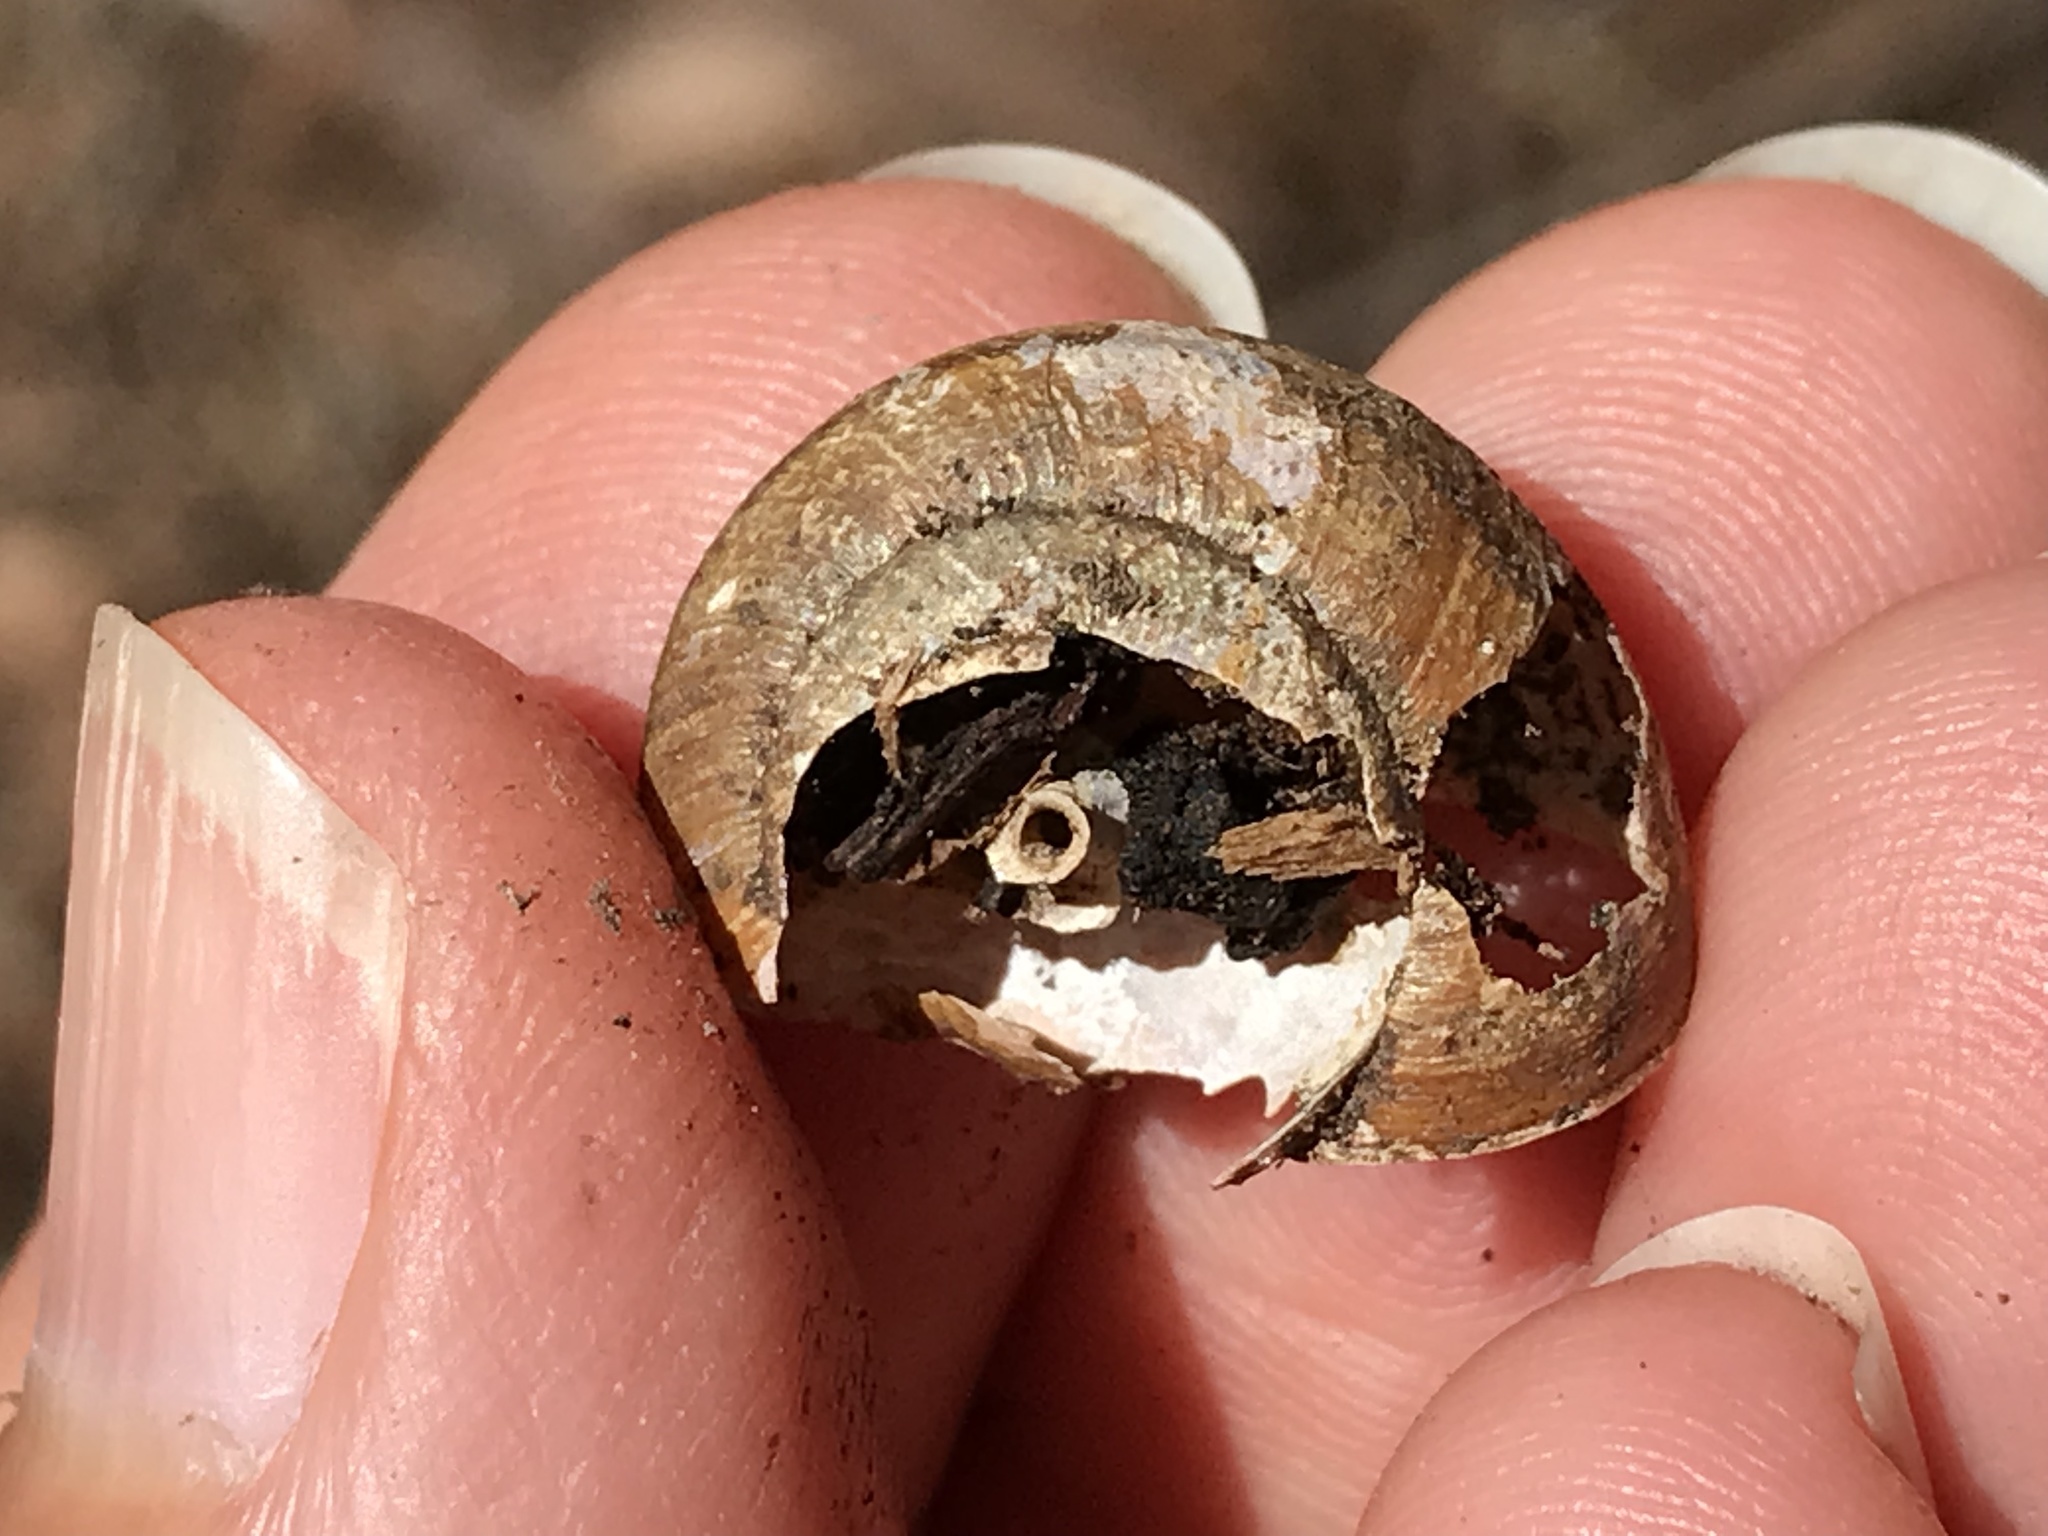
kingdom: Animalia
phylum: Mollusca
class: Gastropoda
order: Stylommatophora
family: Xanthonychidae
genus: Helminthoglypta
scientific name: Helminthoglypta sonoma
